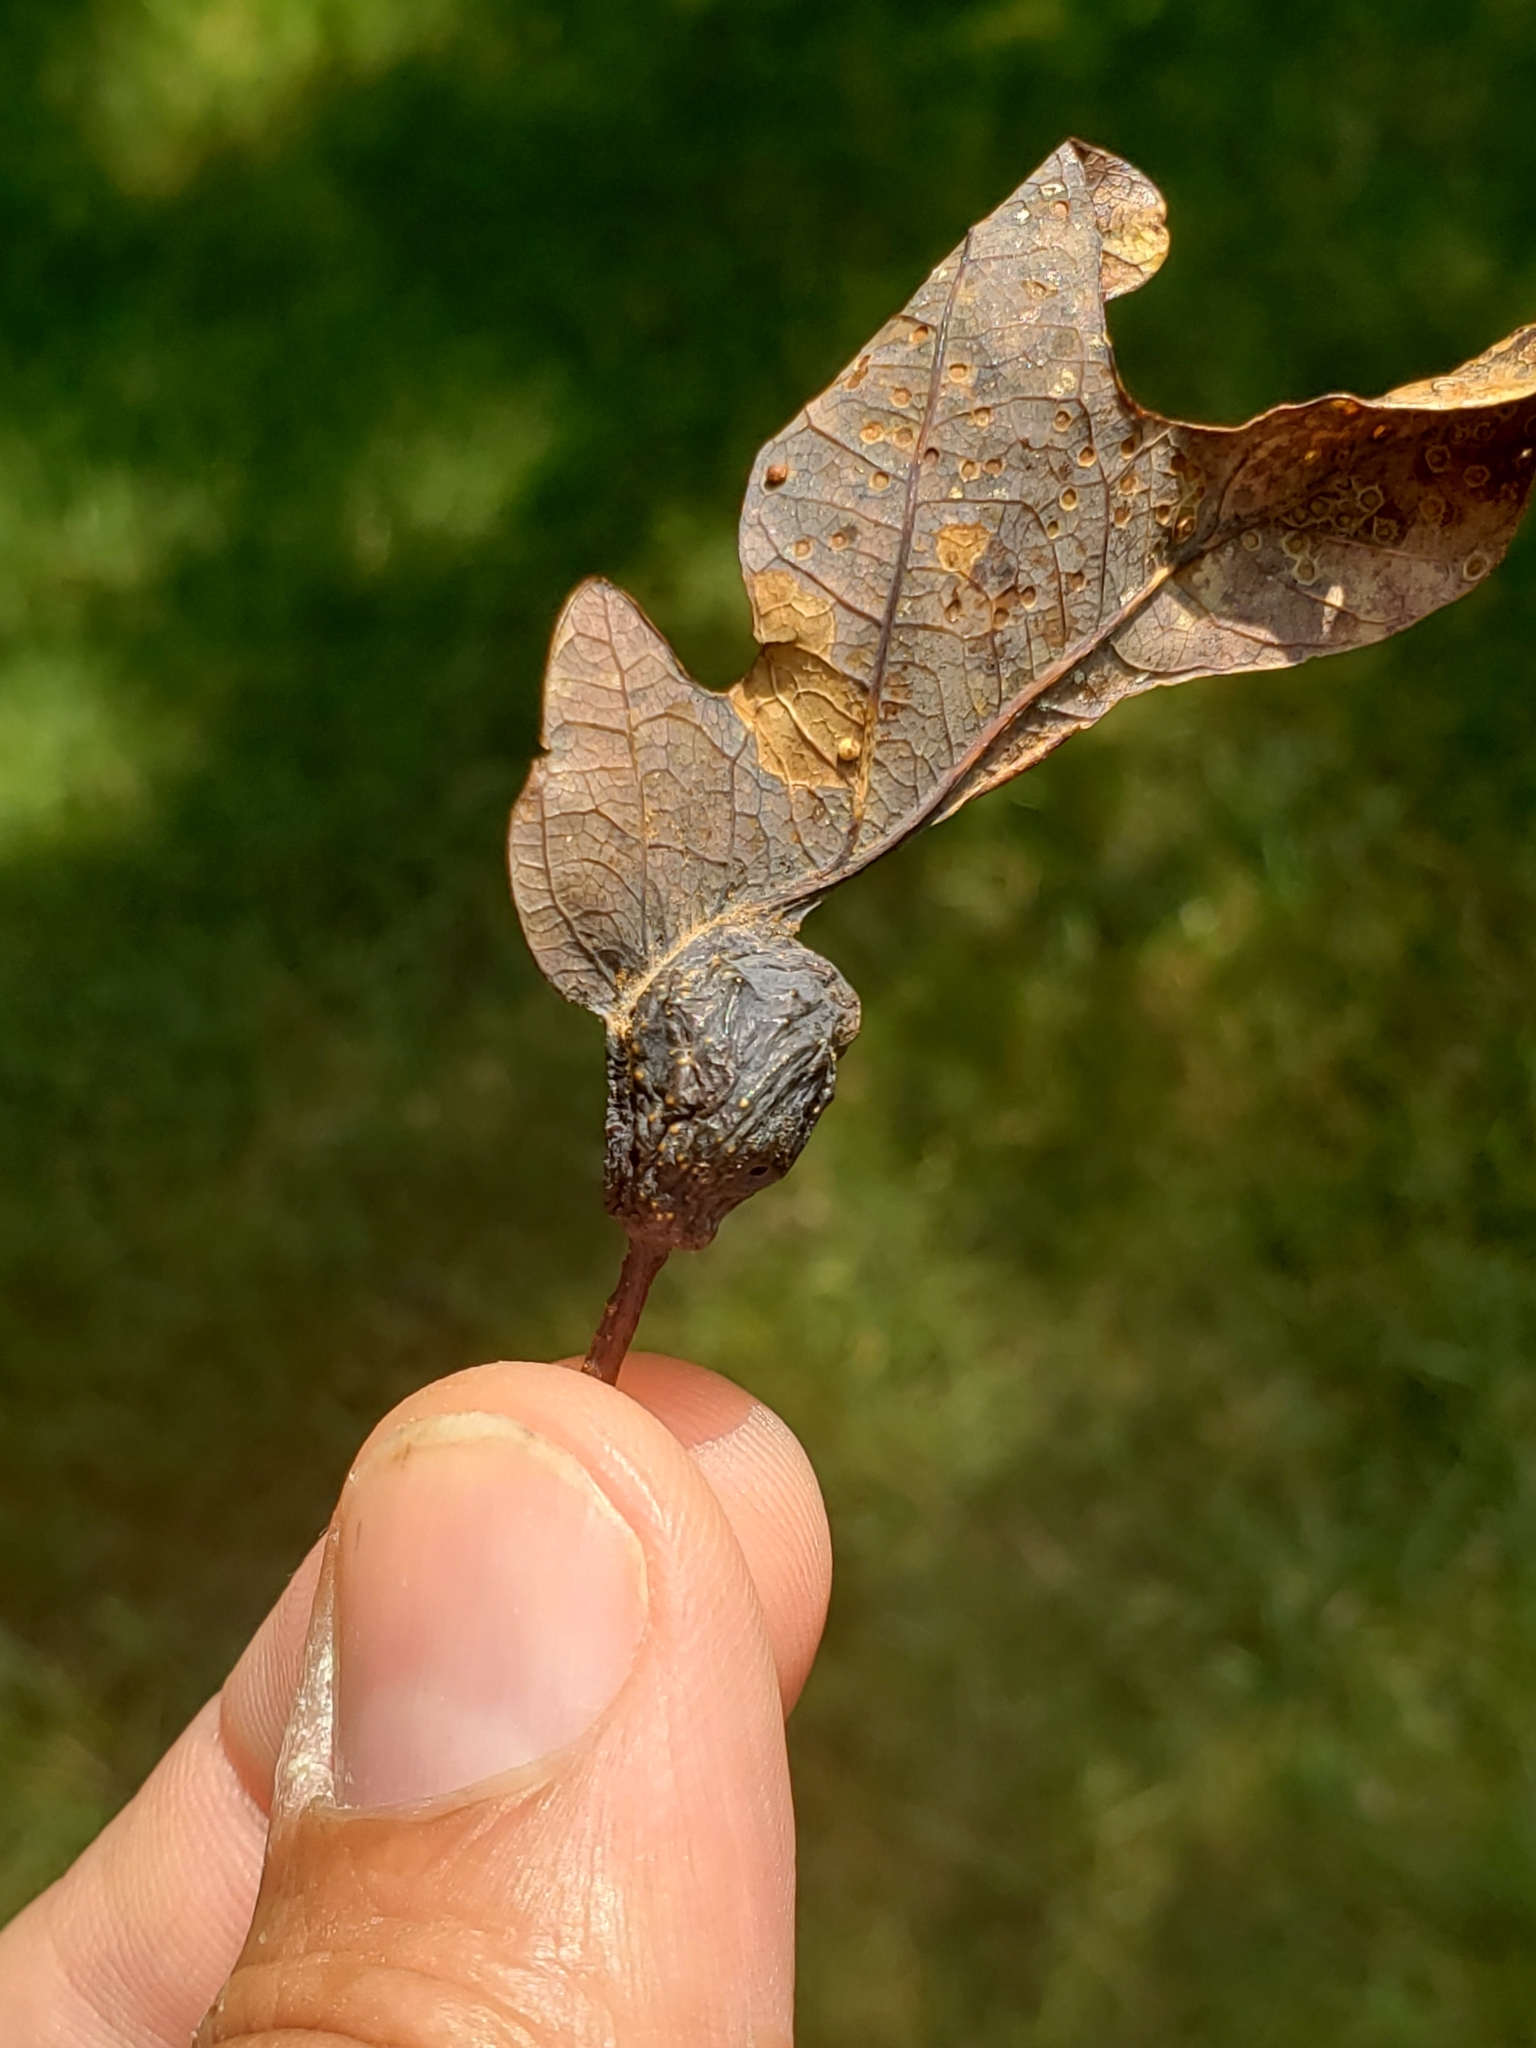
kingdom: Animalia
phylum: Arthropoda
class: Insecta
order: Hymenoptera
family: Cynipidae
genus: Andricus
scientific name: Andricus
